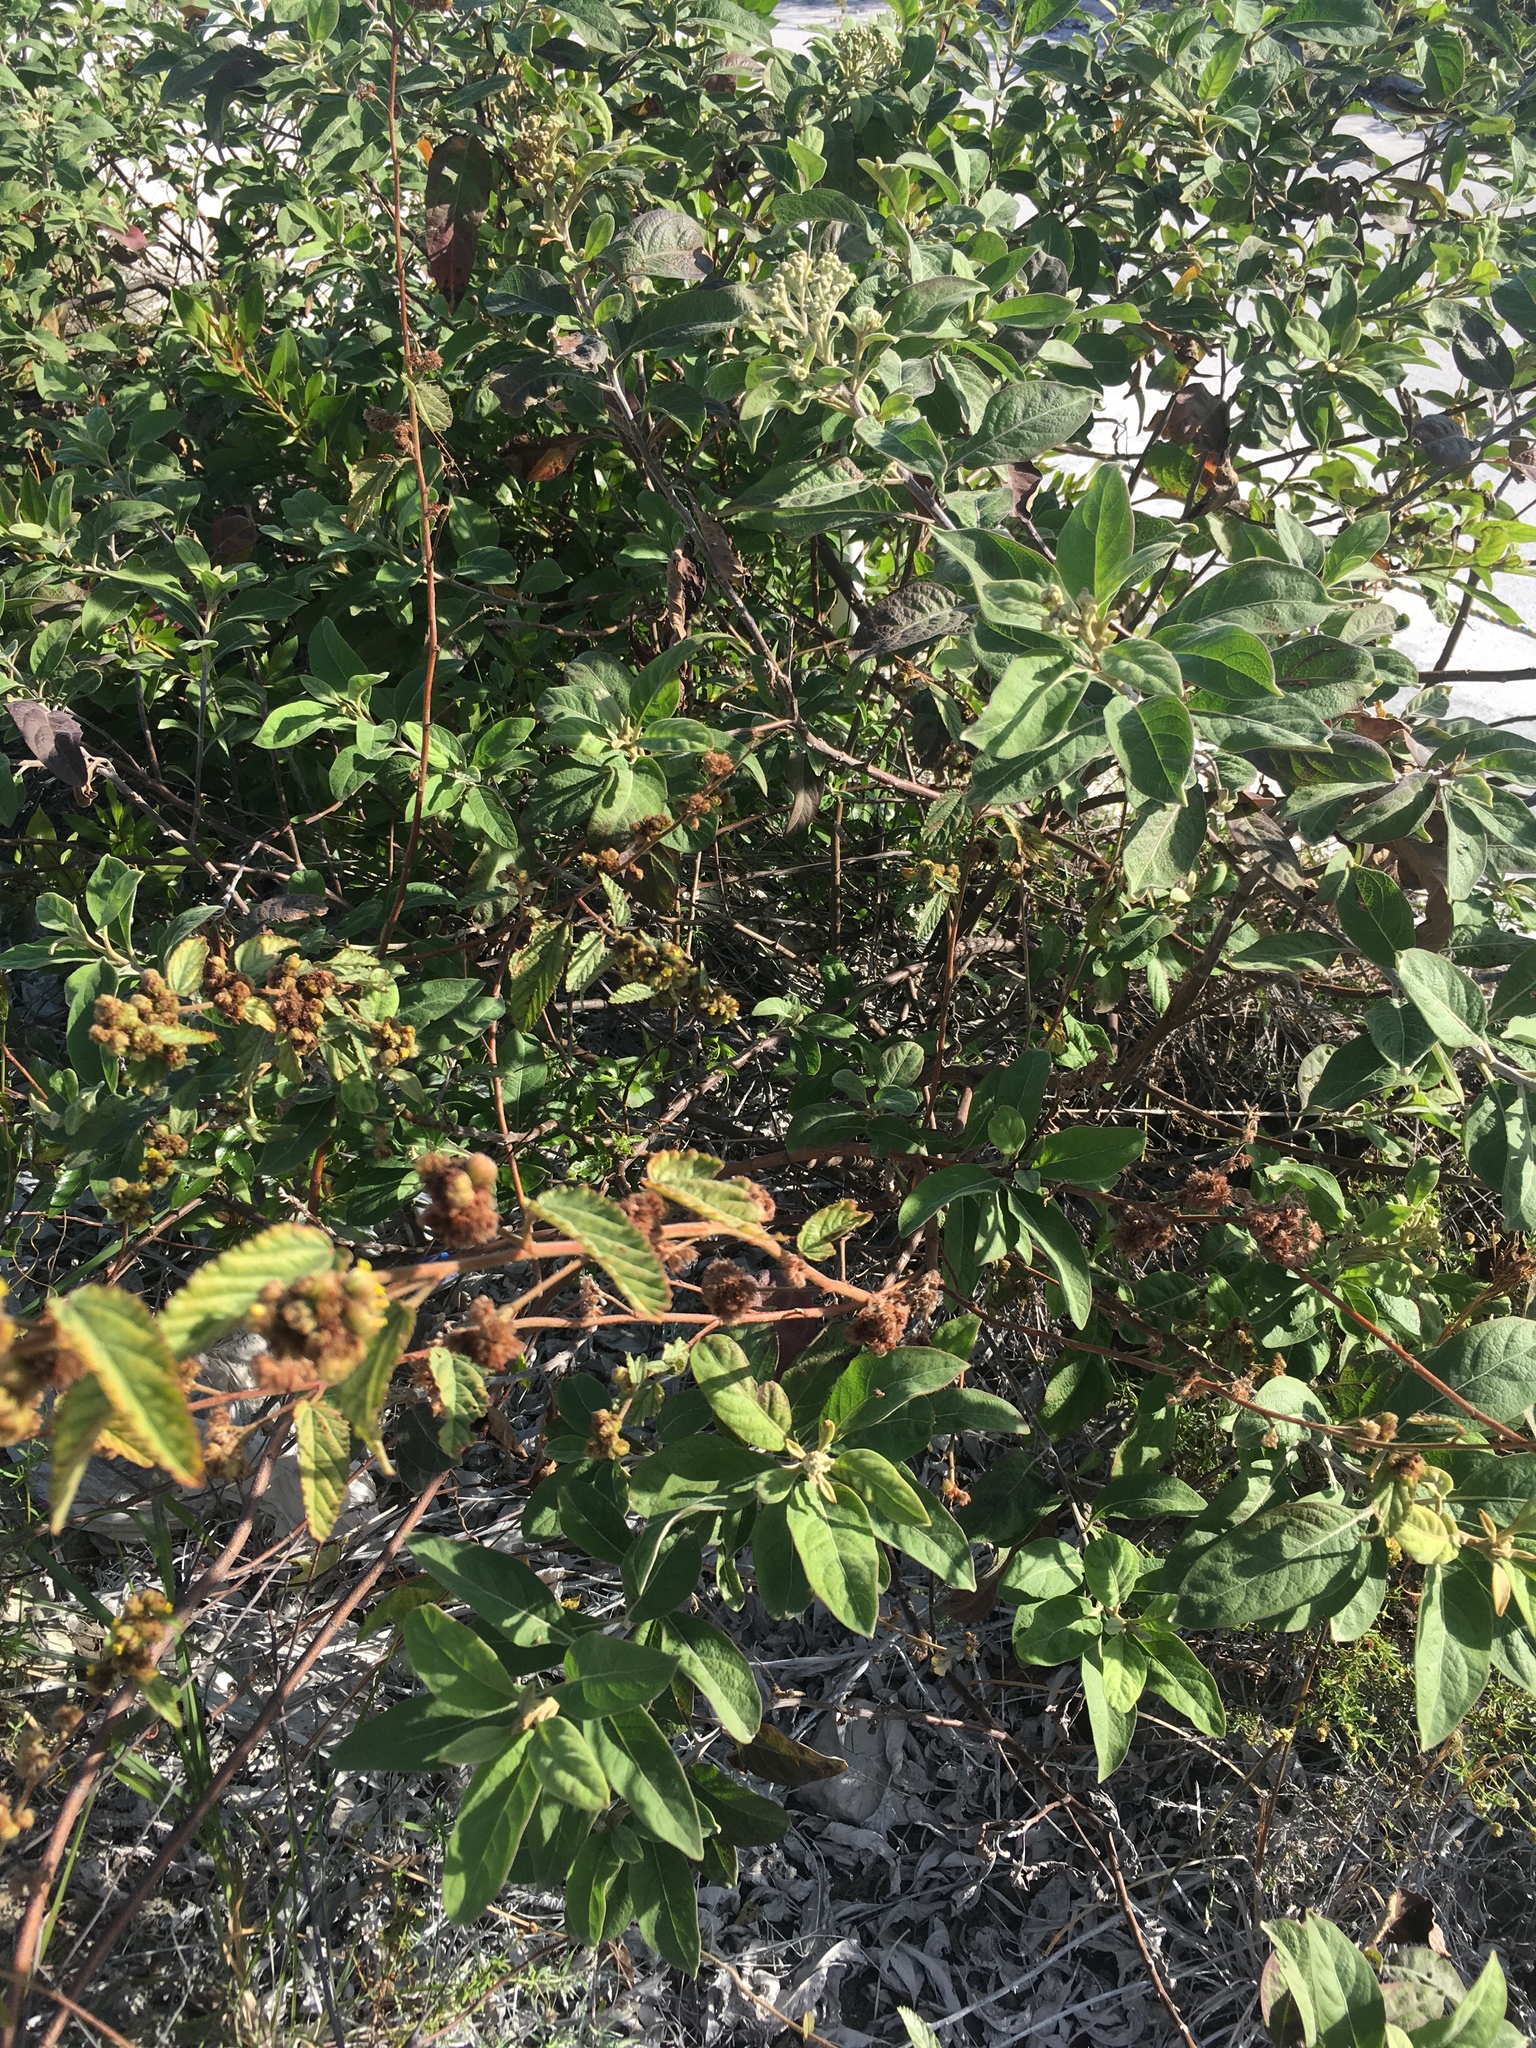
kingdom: Plantae
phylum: Tracheophyta
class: Magnoliopsida
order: Malvales
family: Malvaceae
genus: Waltheria
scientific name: Waltheria indica
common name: Leather-coat
